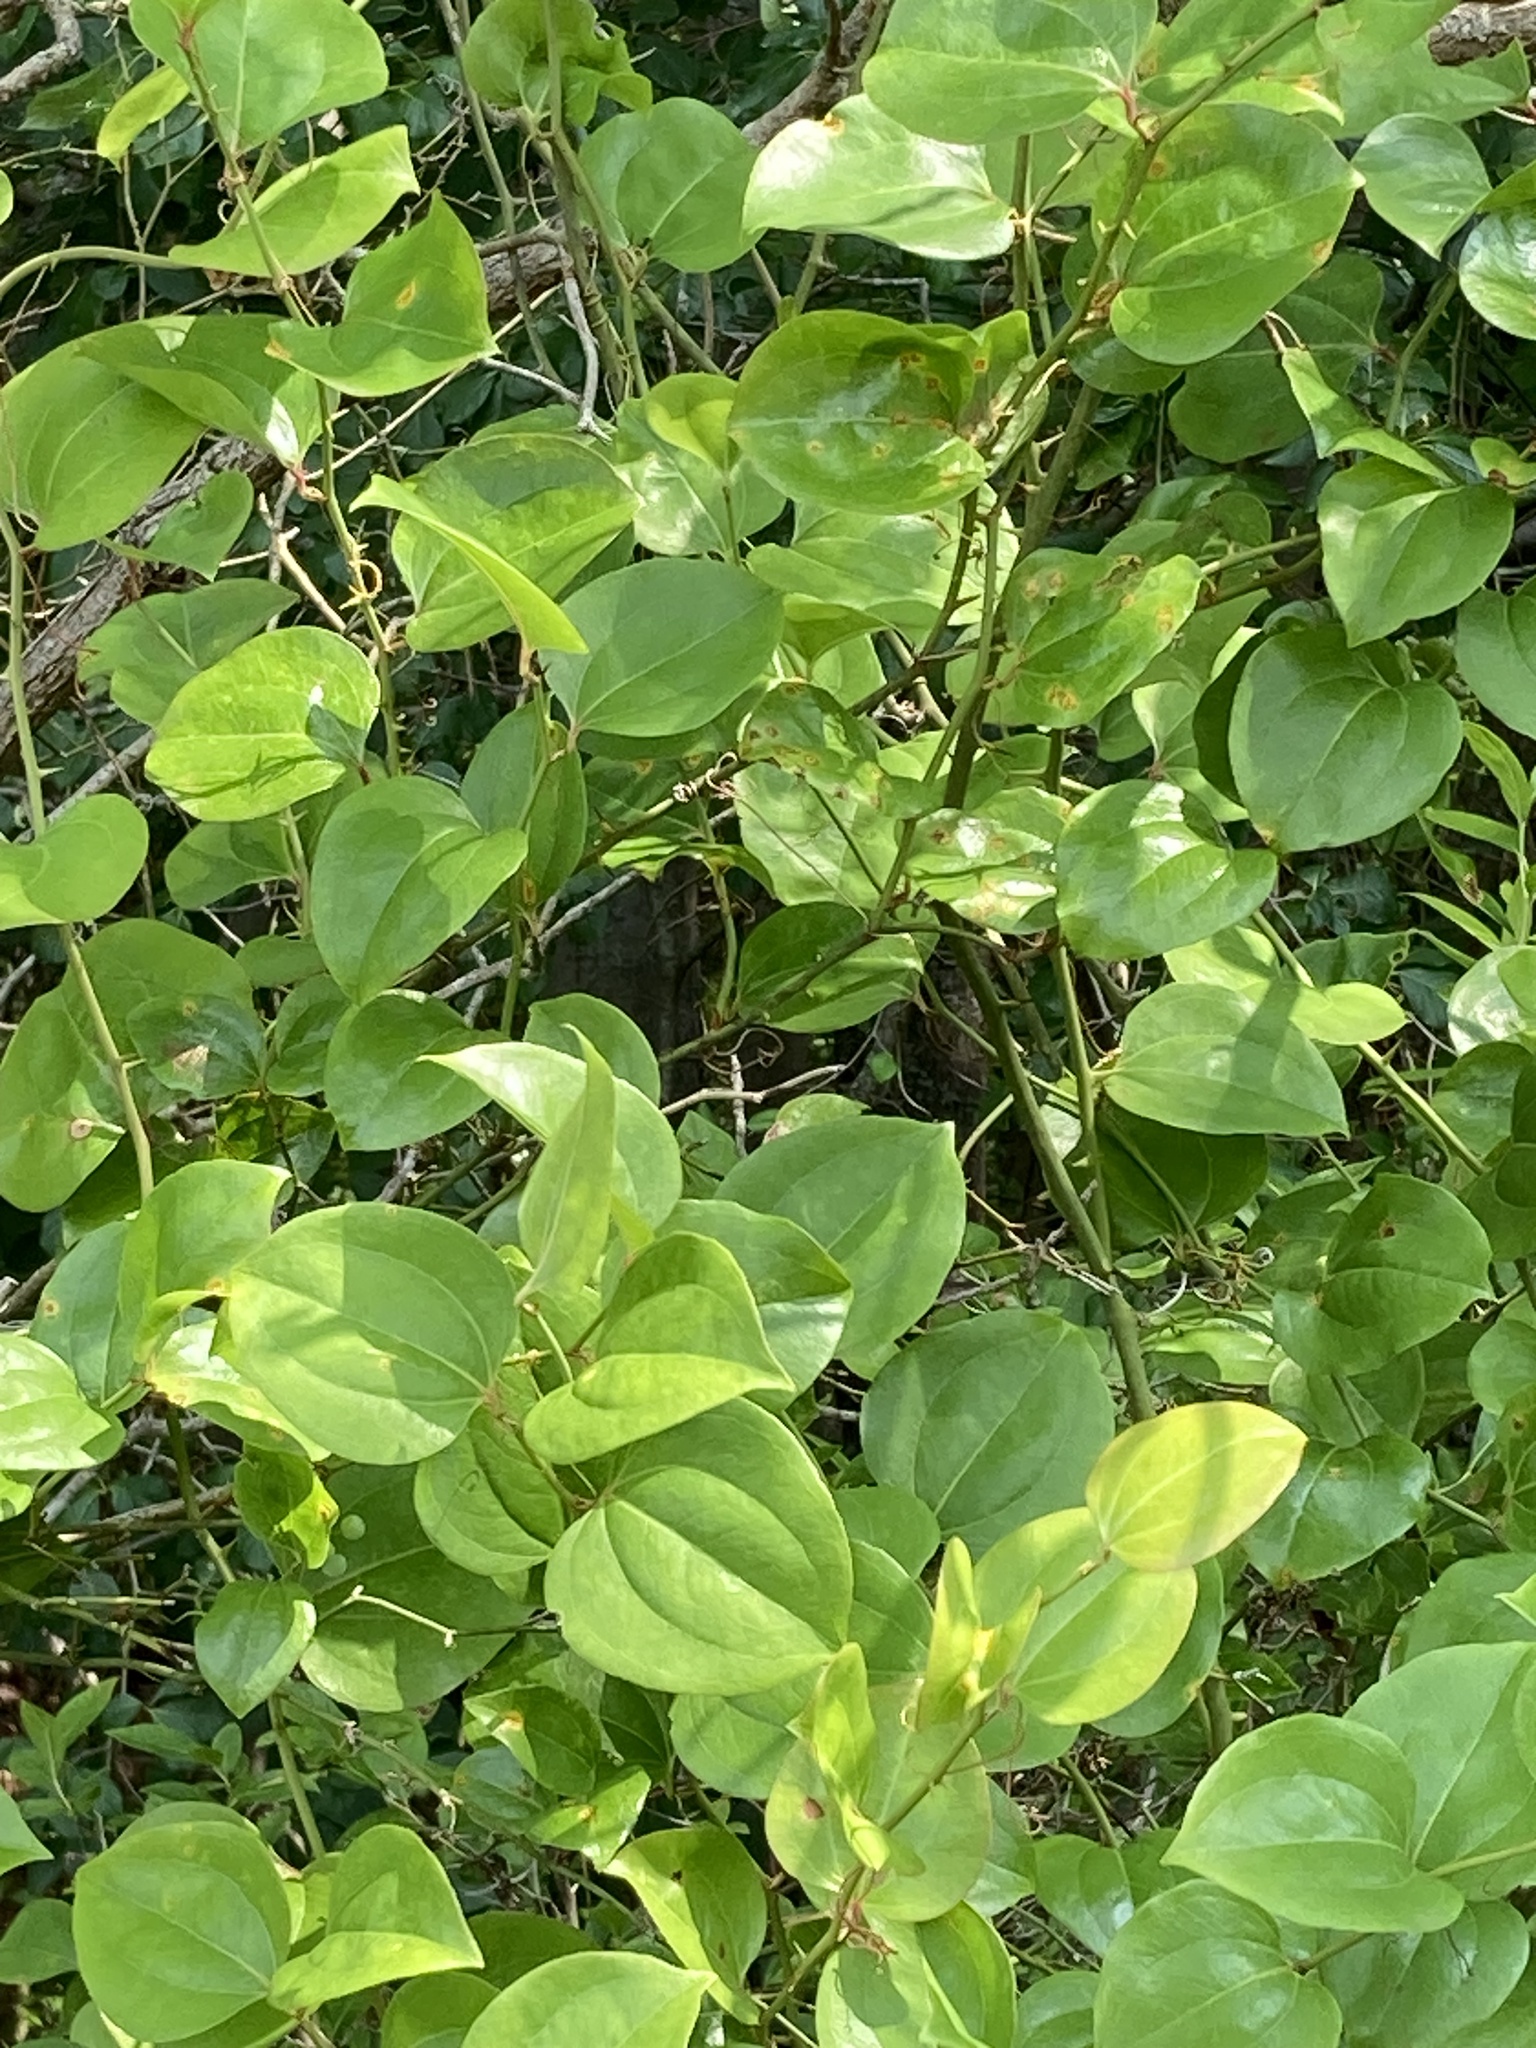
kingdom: Plantae
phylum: Tracheophyta
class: Liliopsida
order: Liliales
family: Smilacaceae
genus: Smilax
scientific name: Smilax rotundifolia
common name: Bullbriar
